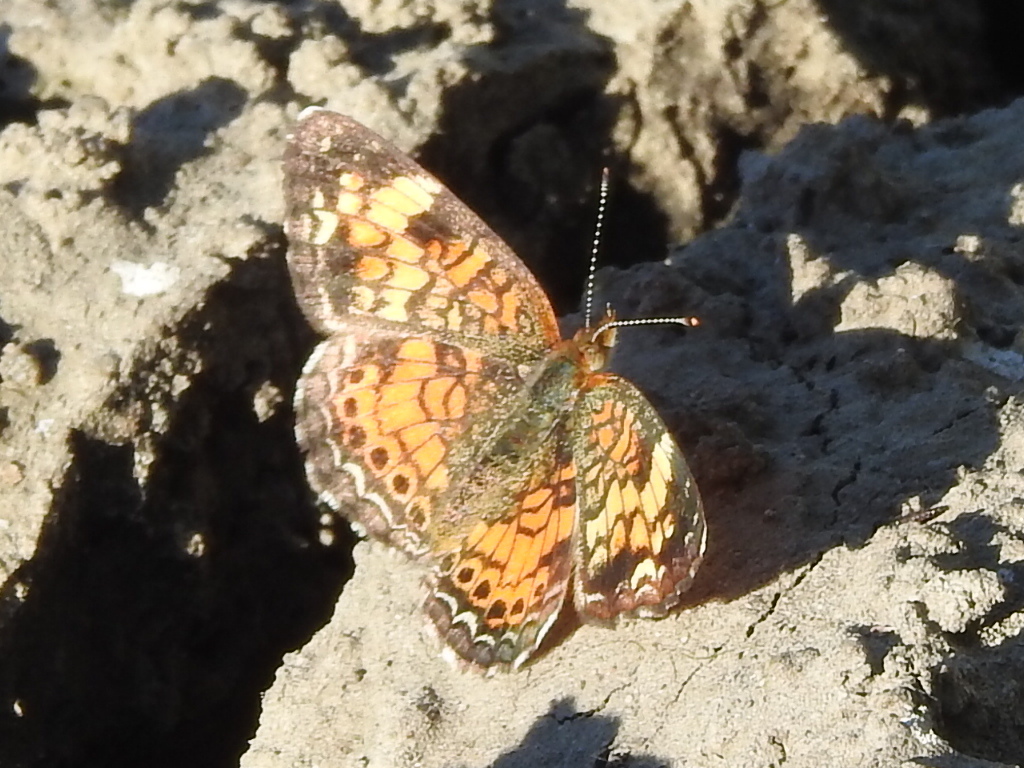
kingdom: Animalia
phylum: Arthropoda
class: Insecta
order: Lepidoptera
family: Nymphalidae
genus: Phyciodes
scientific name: Phyciodes tharos
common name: Pearl crescent
